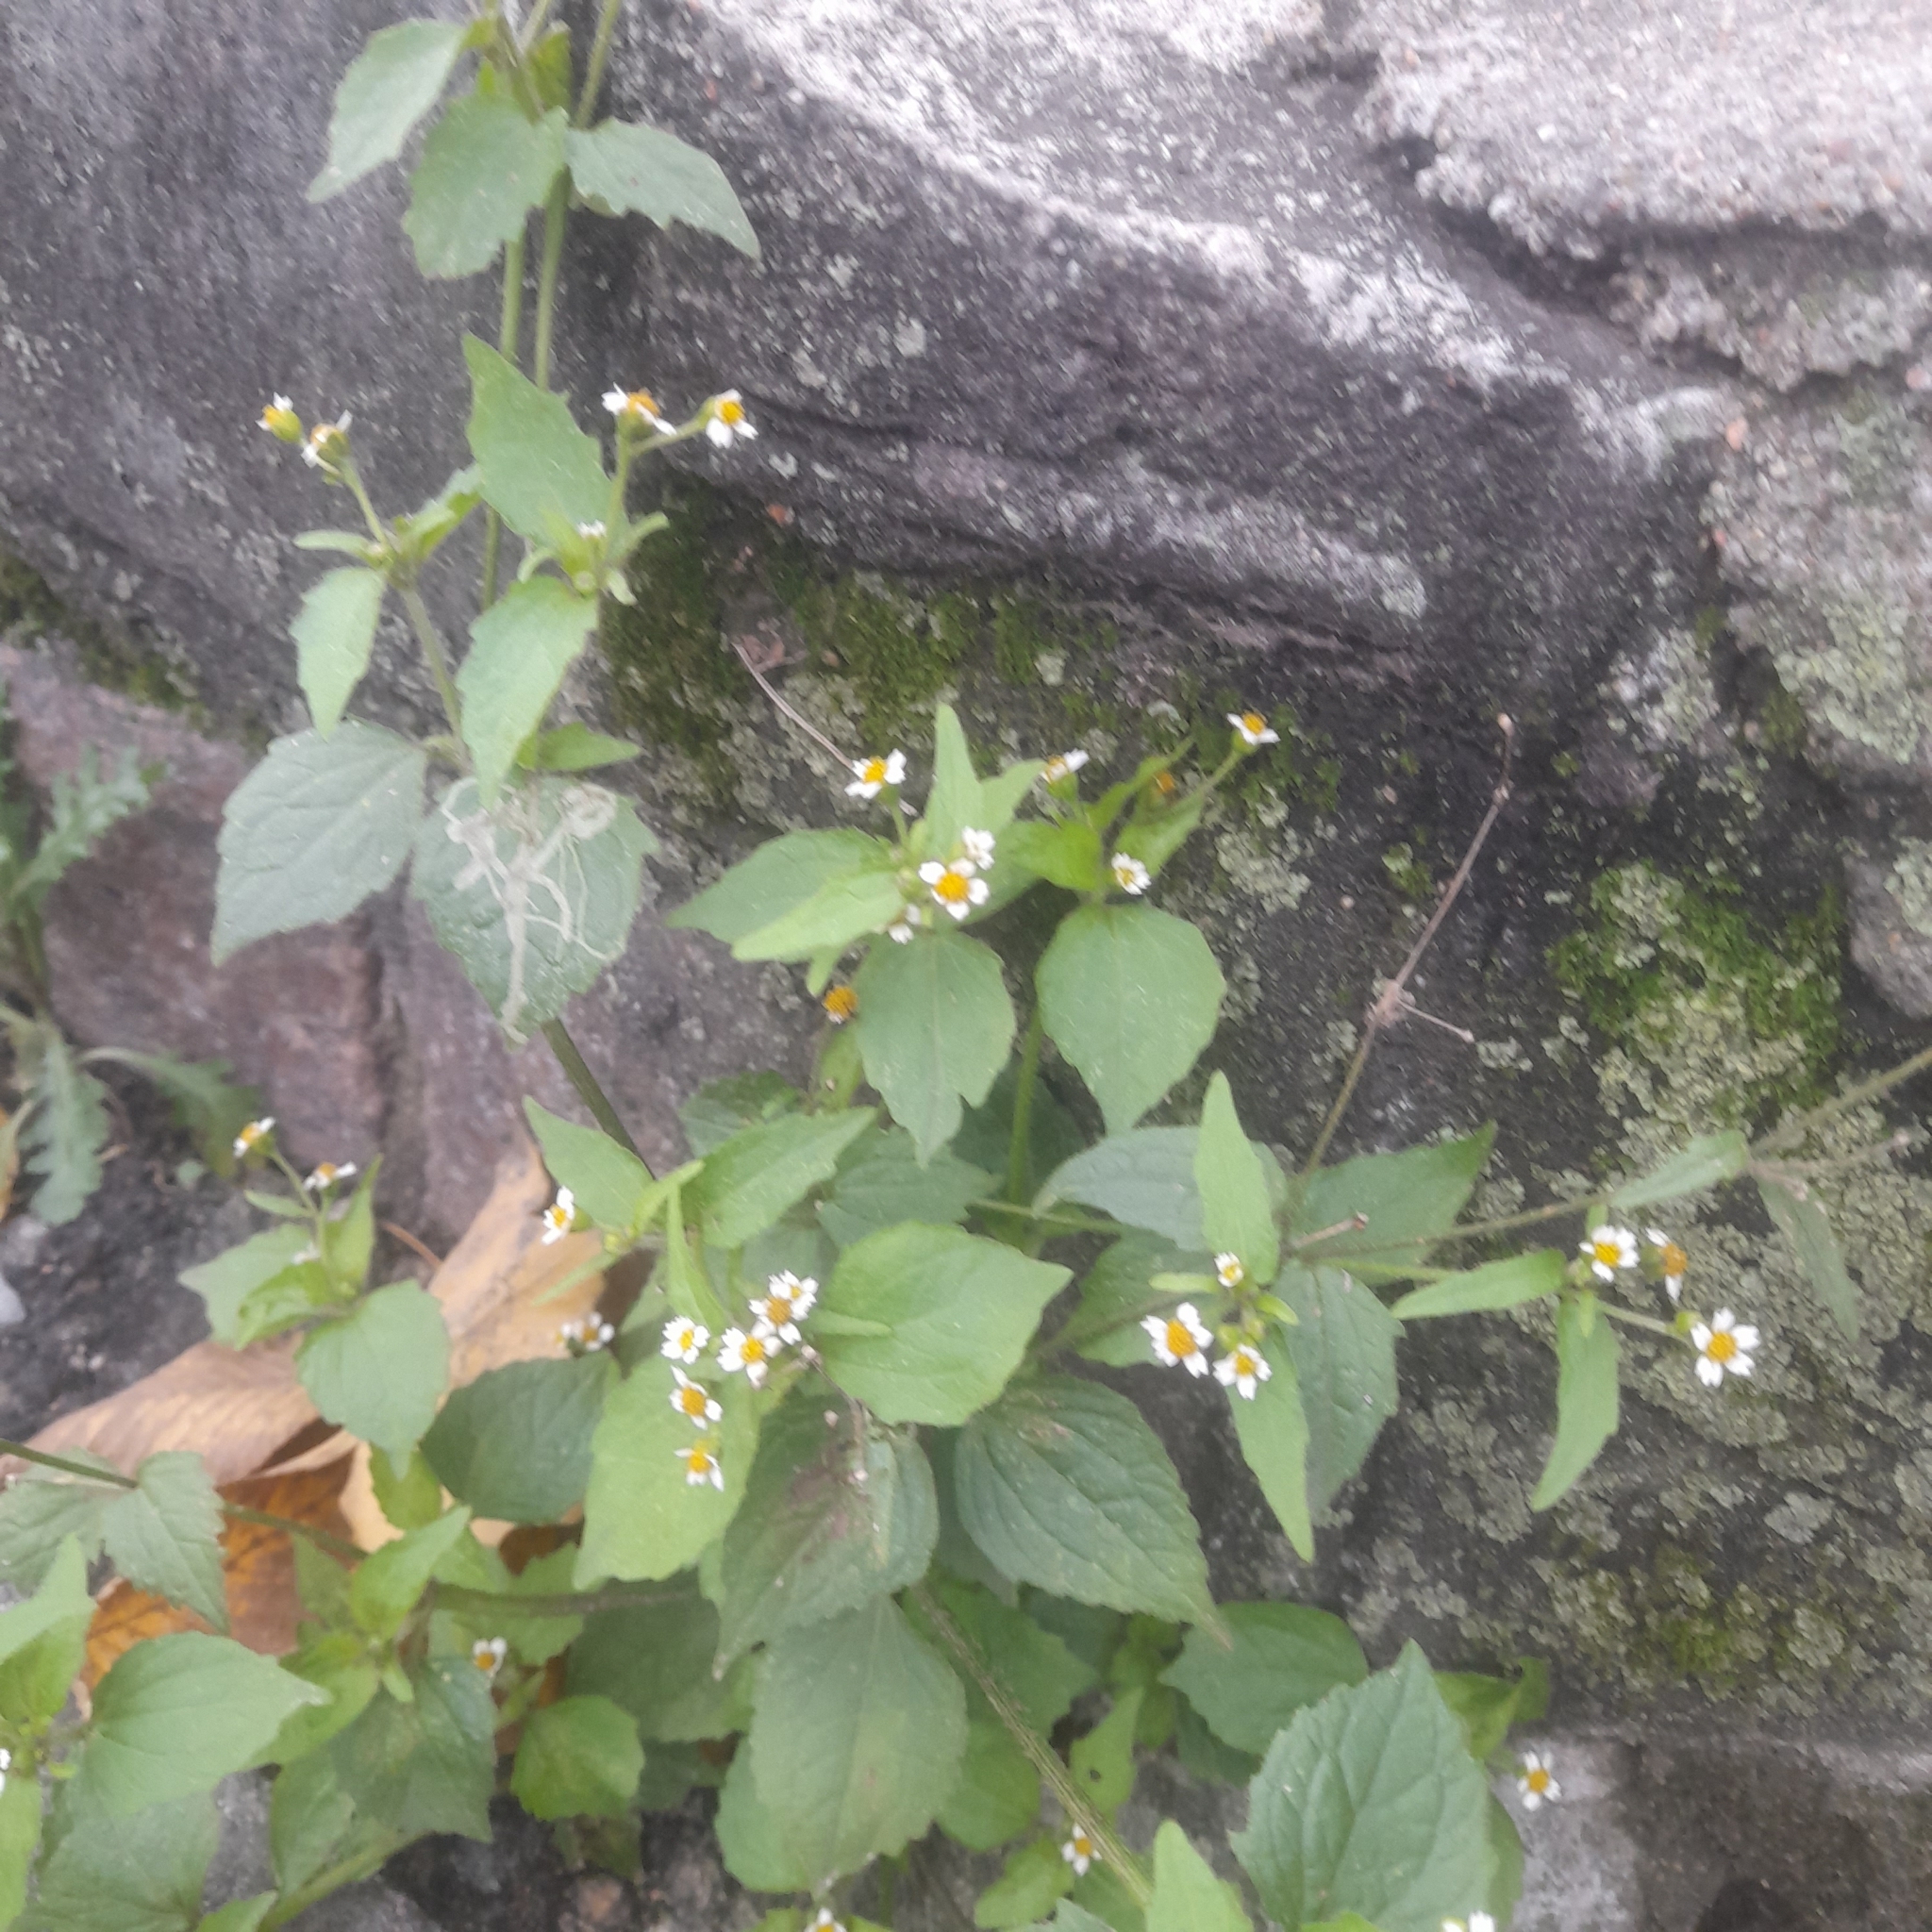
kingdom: Plantae
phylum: Tracheophyta
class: Magnoliopsida
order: Asterales
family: Asteraceae
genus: Galinsoga
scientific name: Galinsoga quadriradiata
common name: Shaggy soldier
